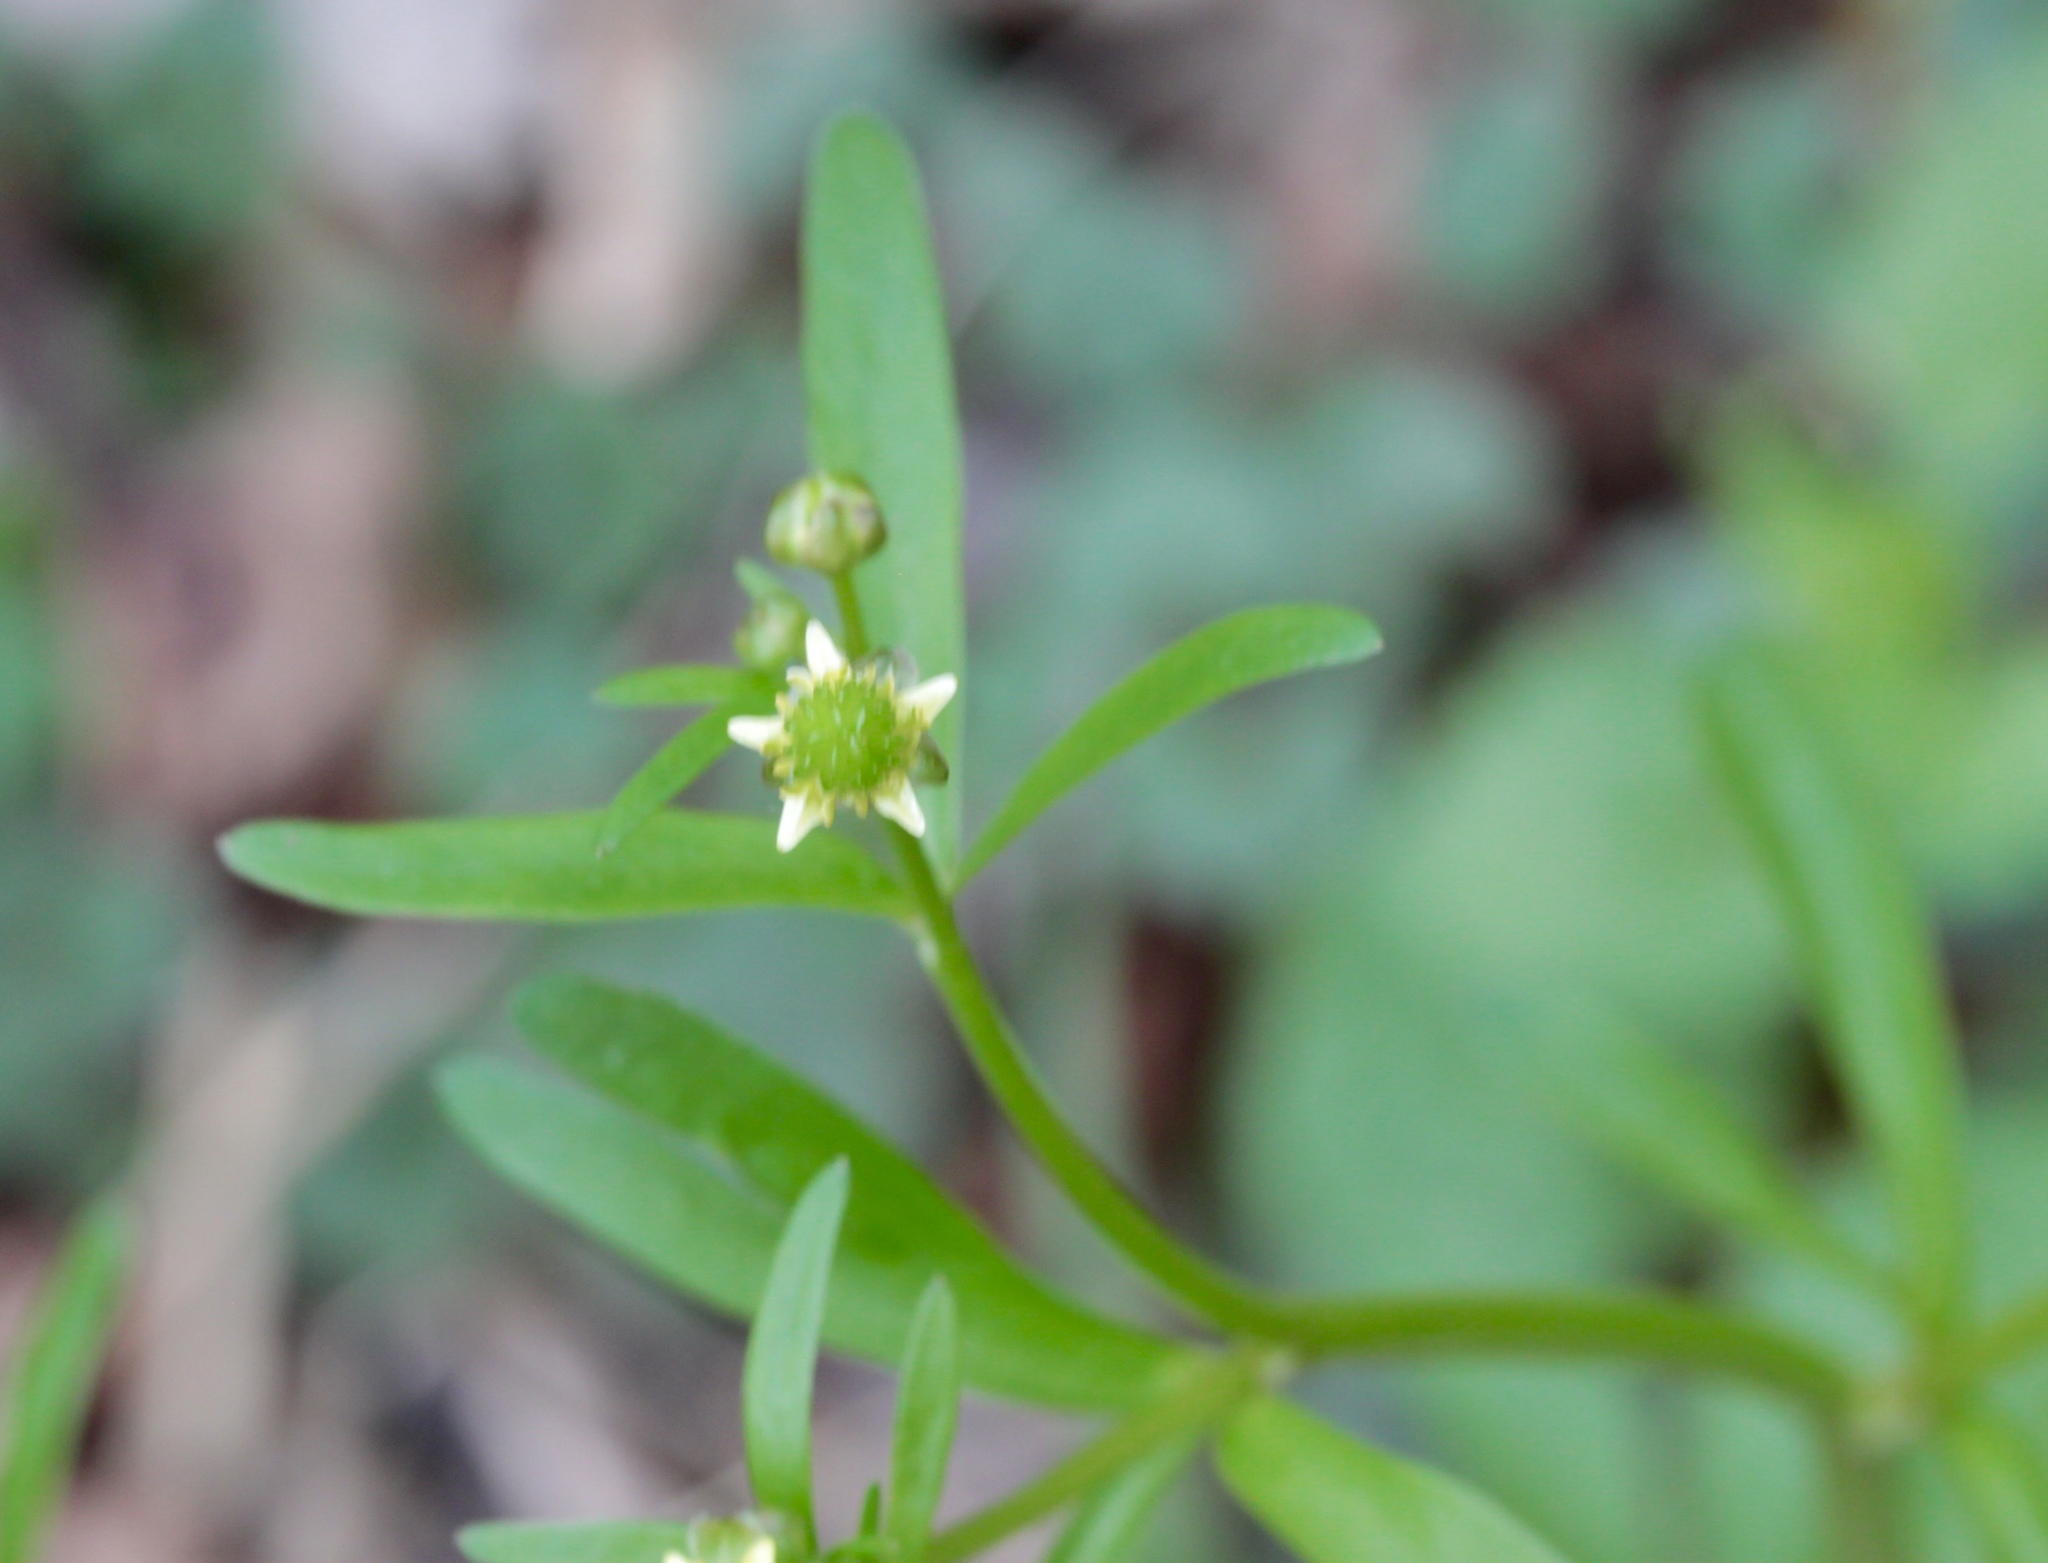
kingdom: Plantae
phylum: Tracheophyta
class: Magnoliopsida
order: Ranunculales
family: Ranunculaceae
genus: Ranunculus
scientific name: Ranunculus abortivus
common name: Early wood buttercup
